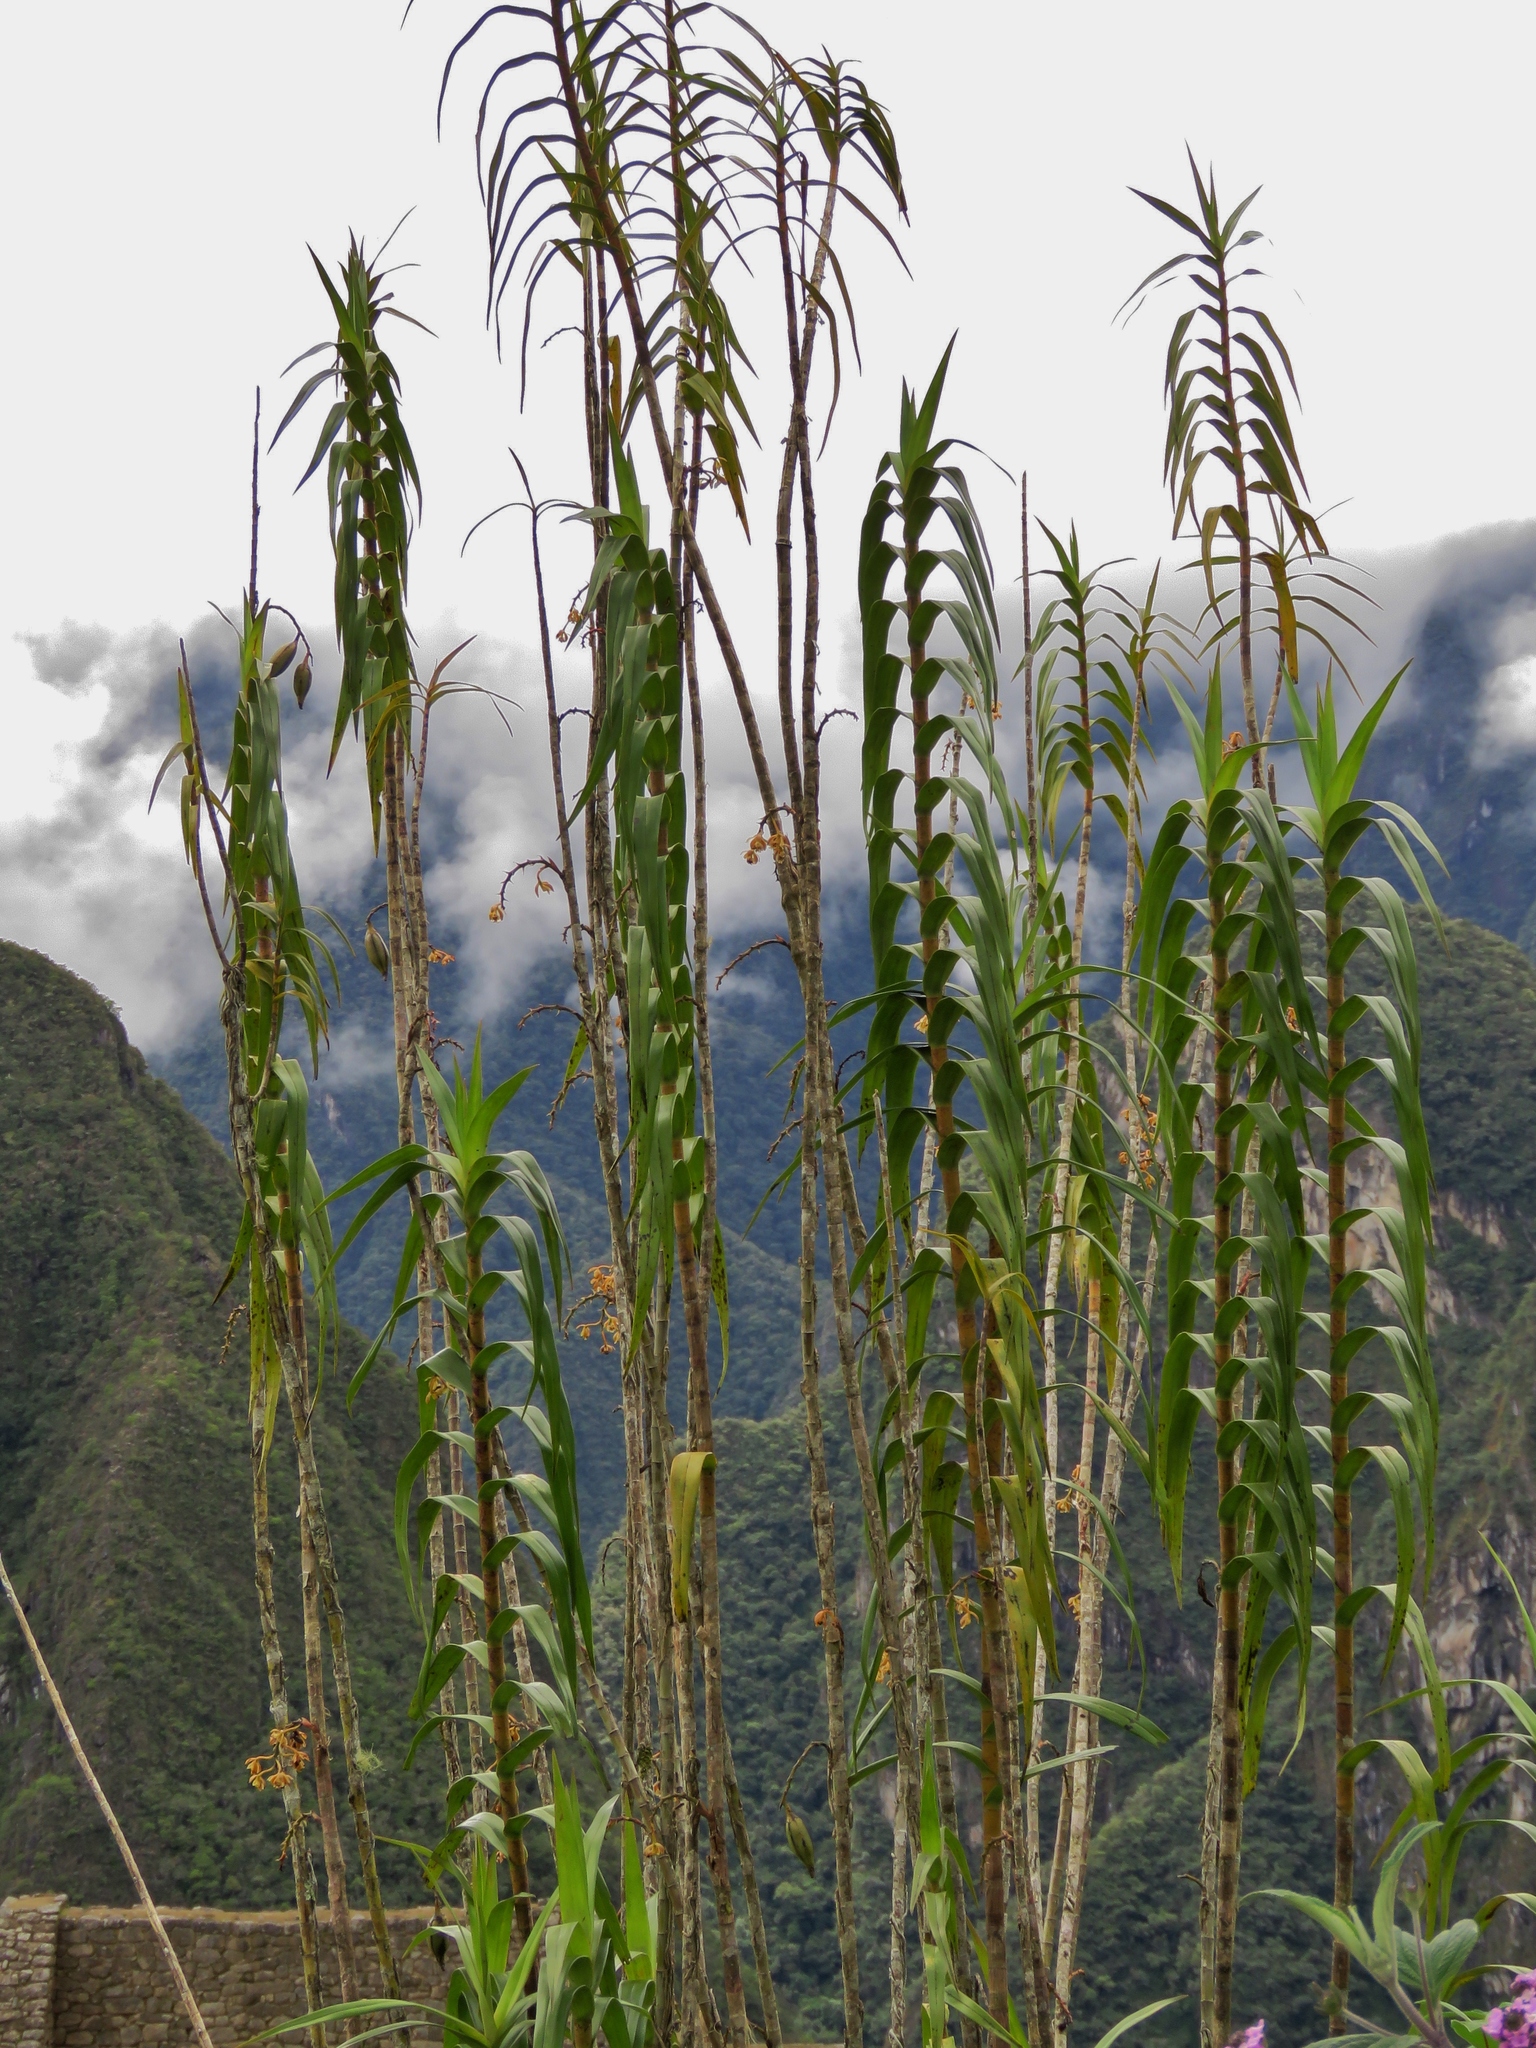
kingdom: Plantae
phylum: Tracheophyta
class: Liliopsida
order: Asparagales
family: Orchidaceae
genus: Epidendrum
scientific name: Epidendrum bambusiforme
